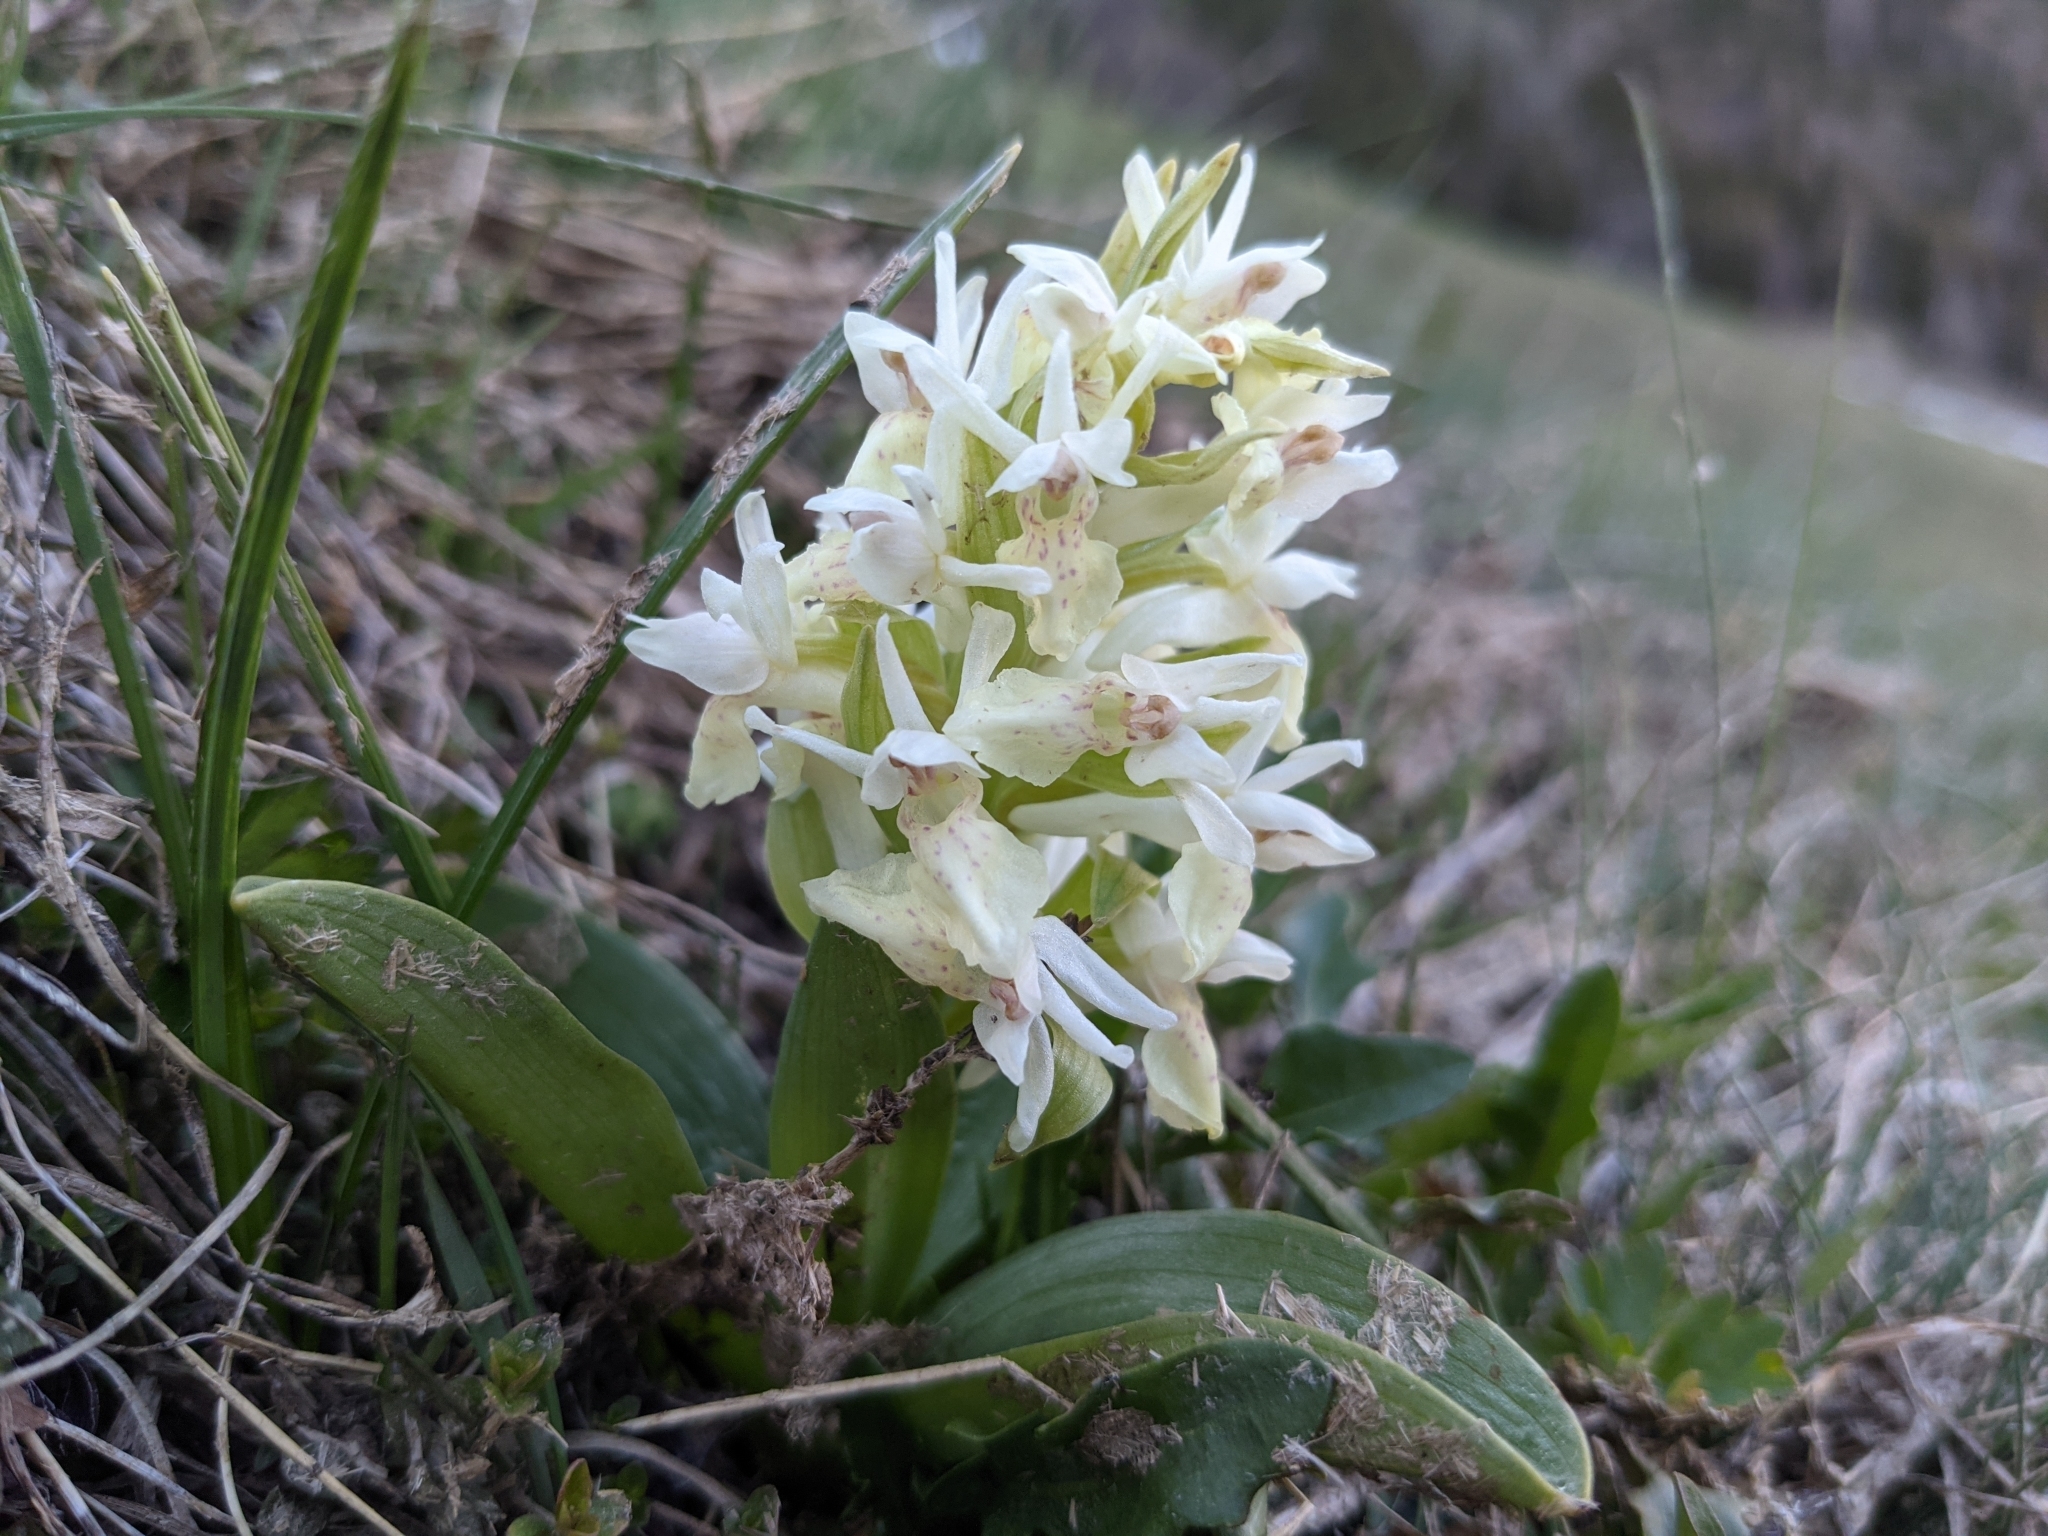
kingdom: Plantae
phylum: Tracheophyta
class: Liliopsida
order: Asparagales
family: Orchidaceae
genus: Dactylorhiza
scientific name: Dactylorhiza sambucina
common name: Elder-flowered orchid
